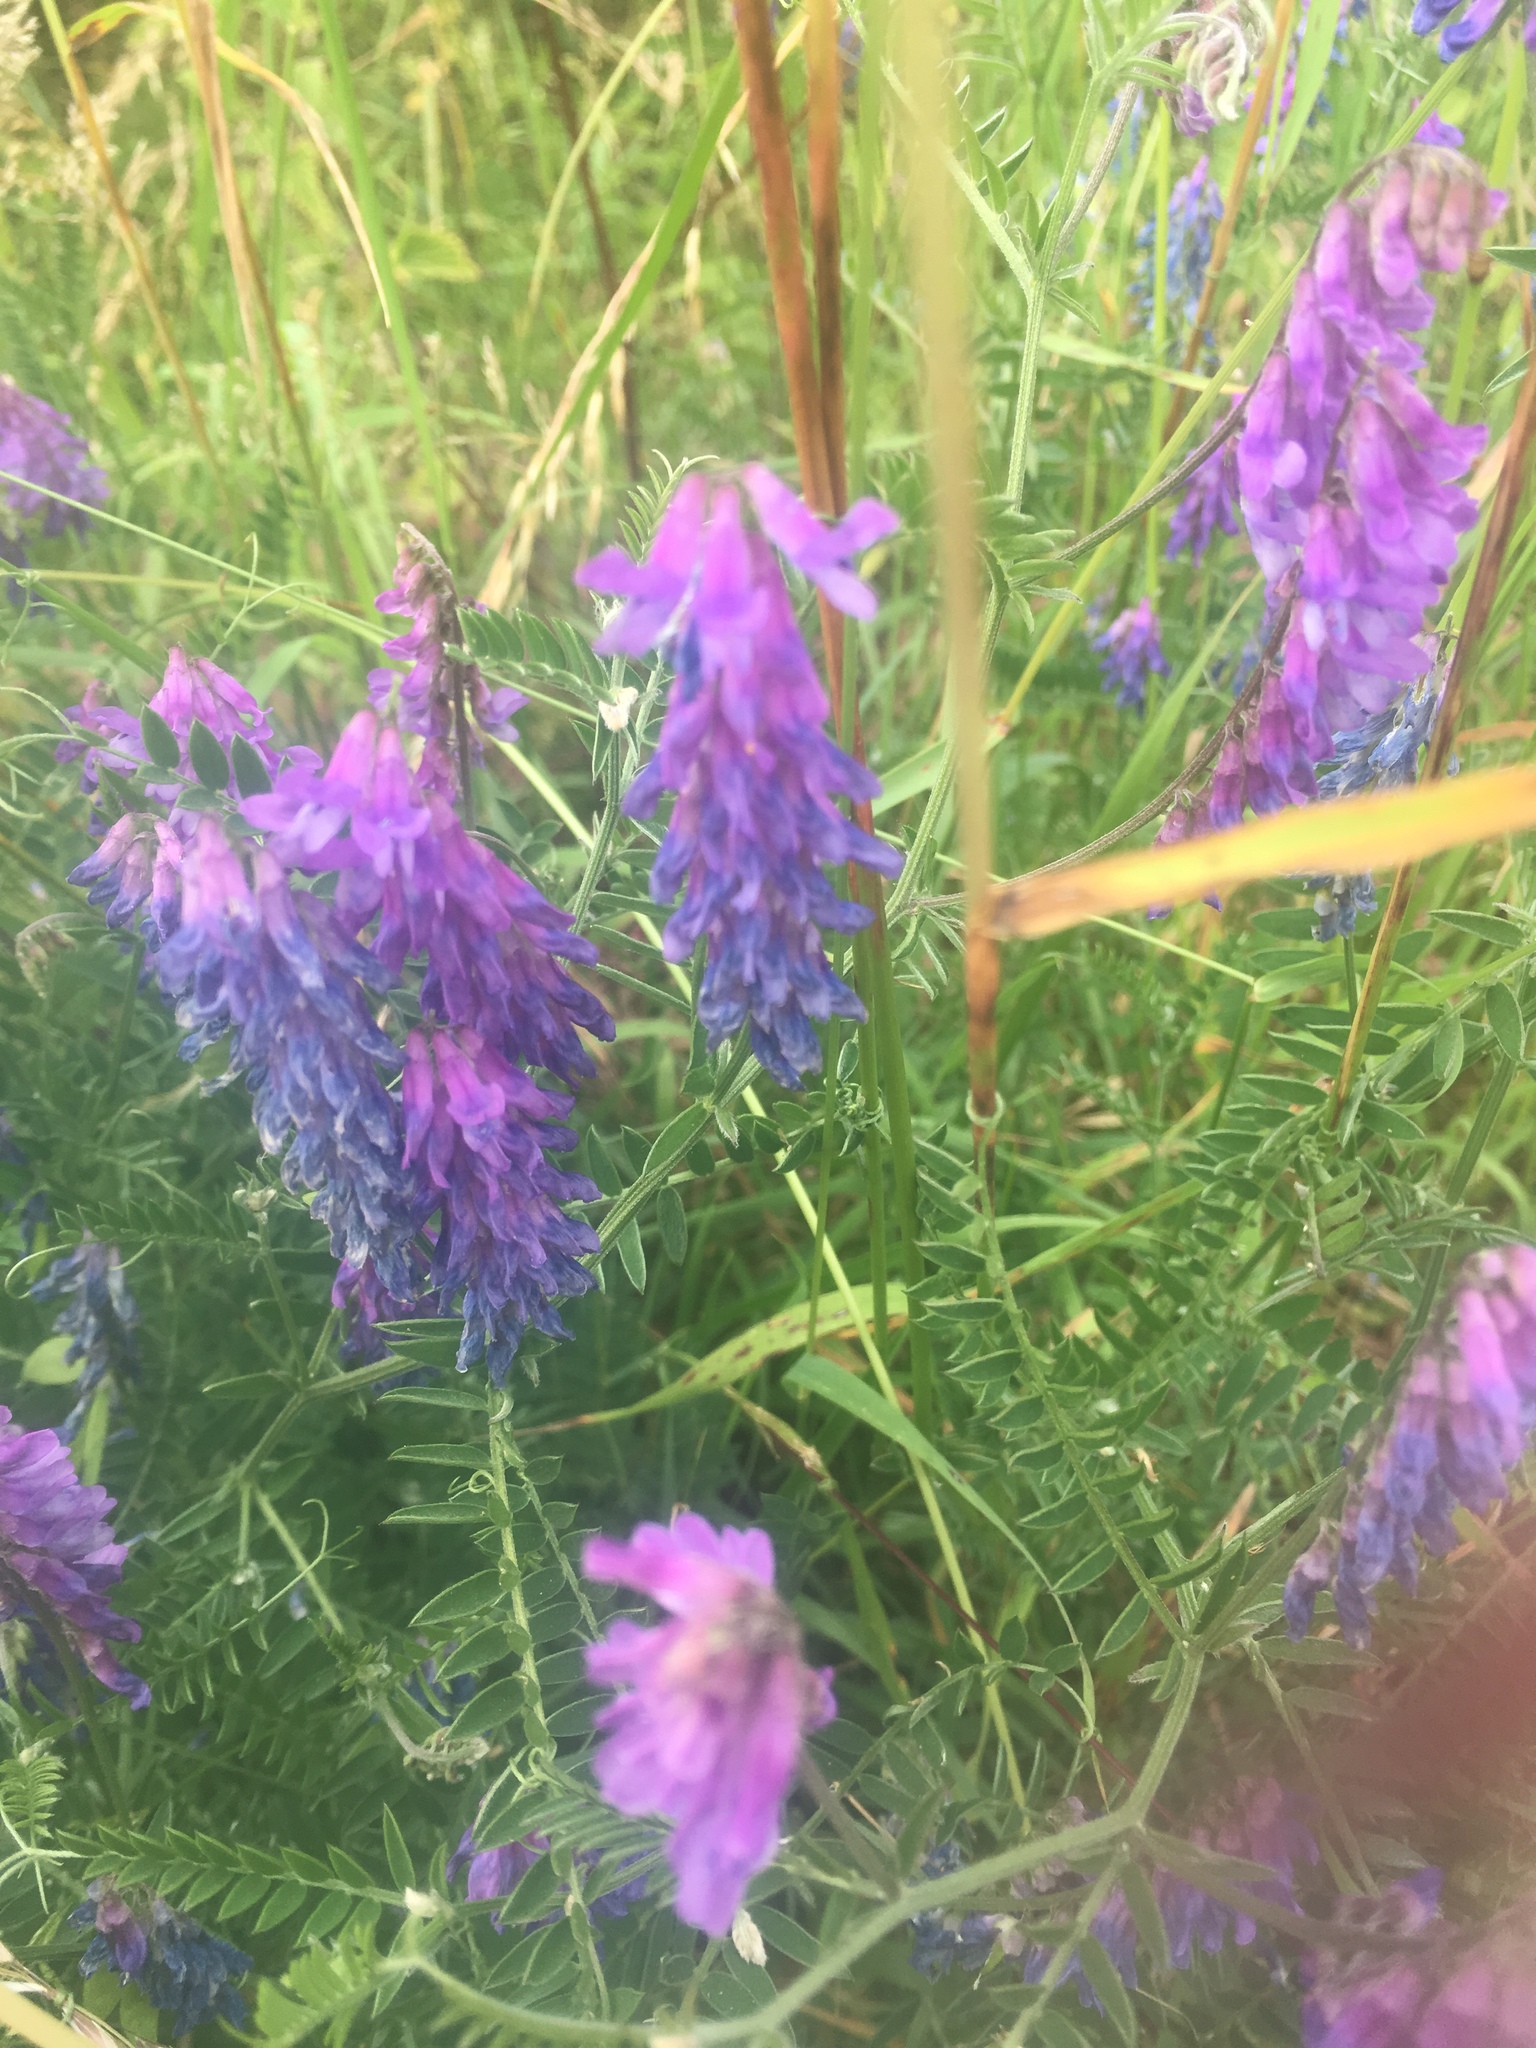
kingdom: Plantae
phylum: Tracheophyta
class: Magnoliopsida
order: Fabales
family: Fabaceae
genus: Vicia
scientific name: Vicia cracca
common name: Bird vetch
